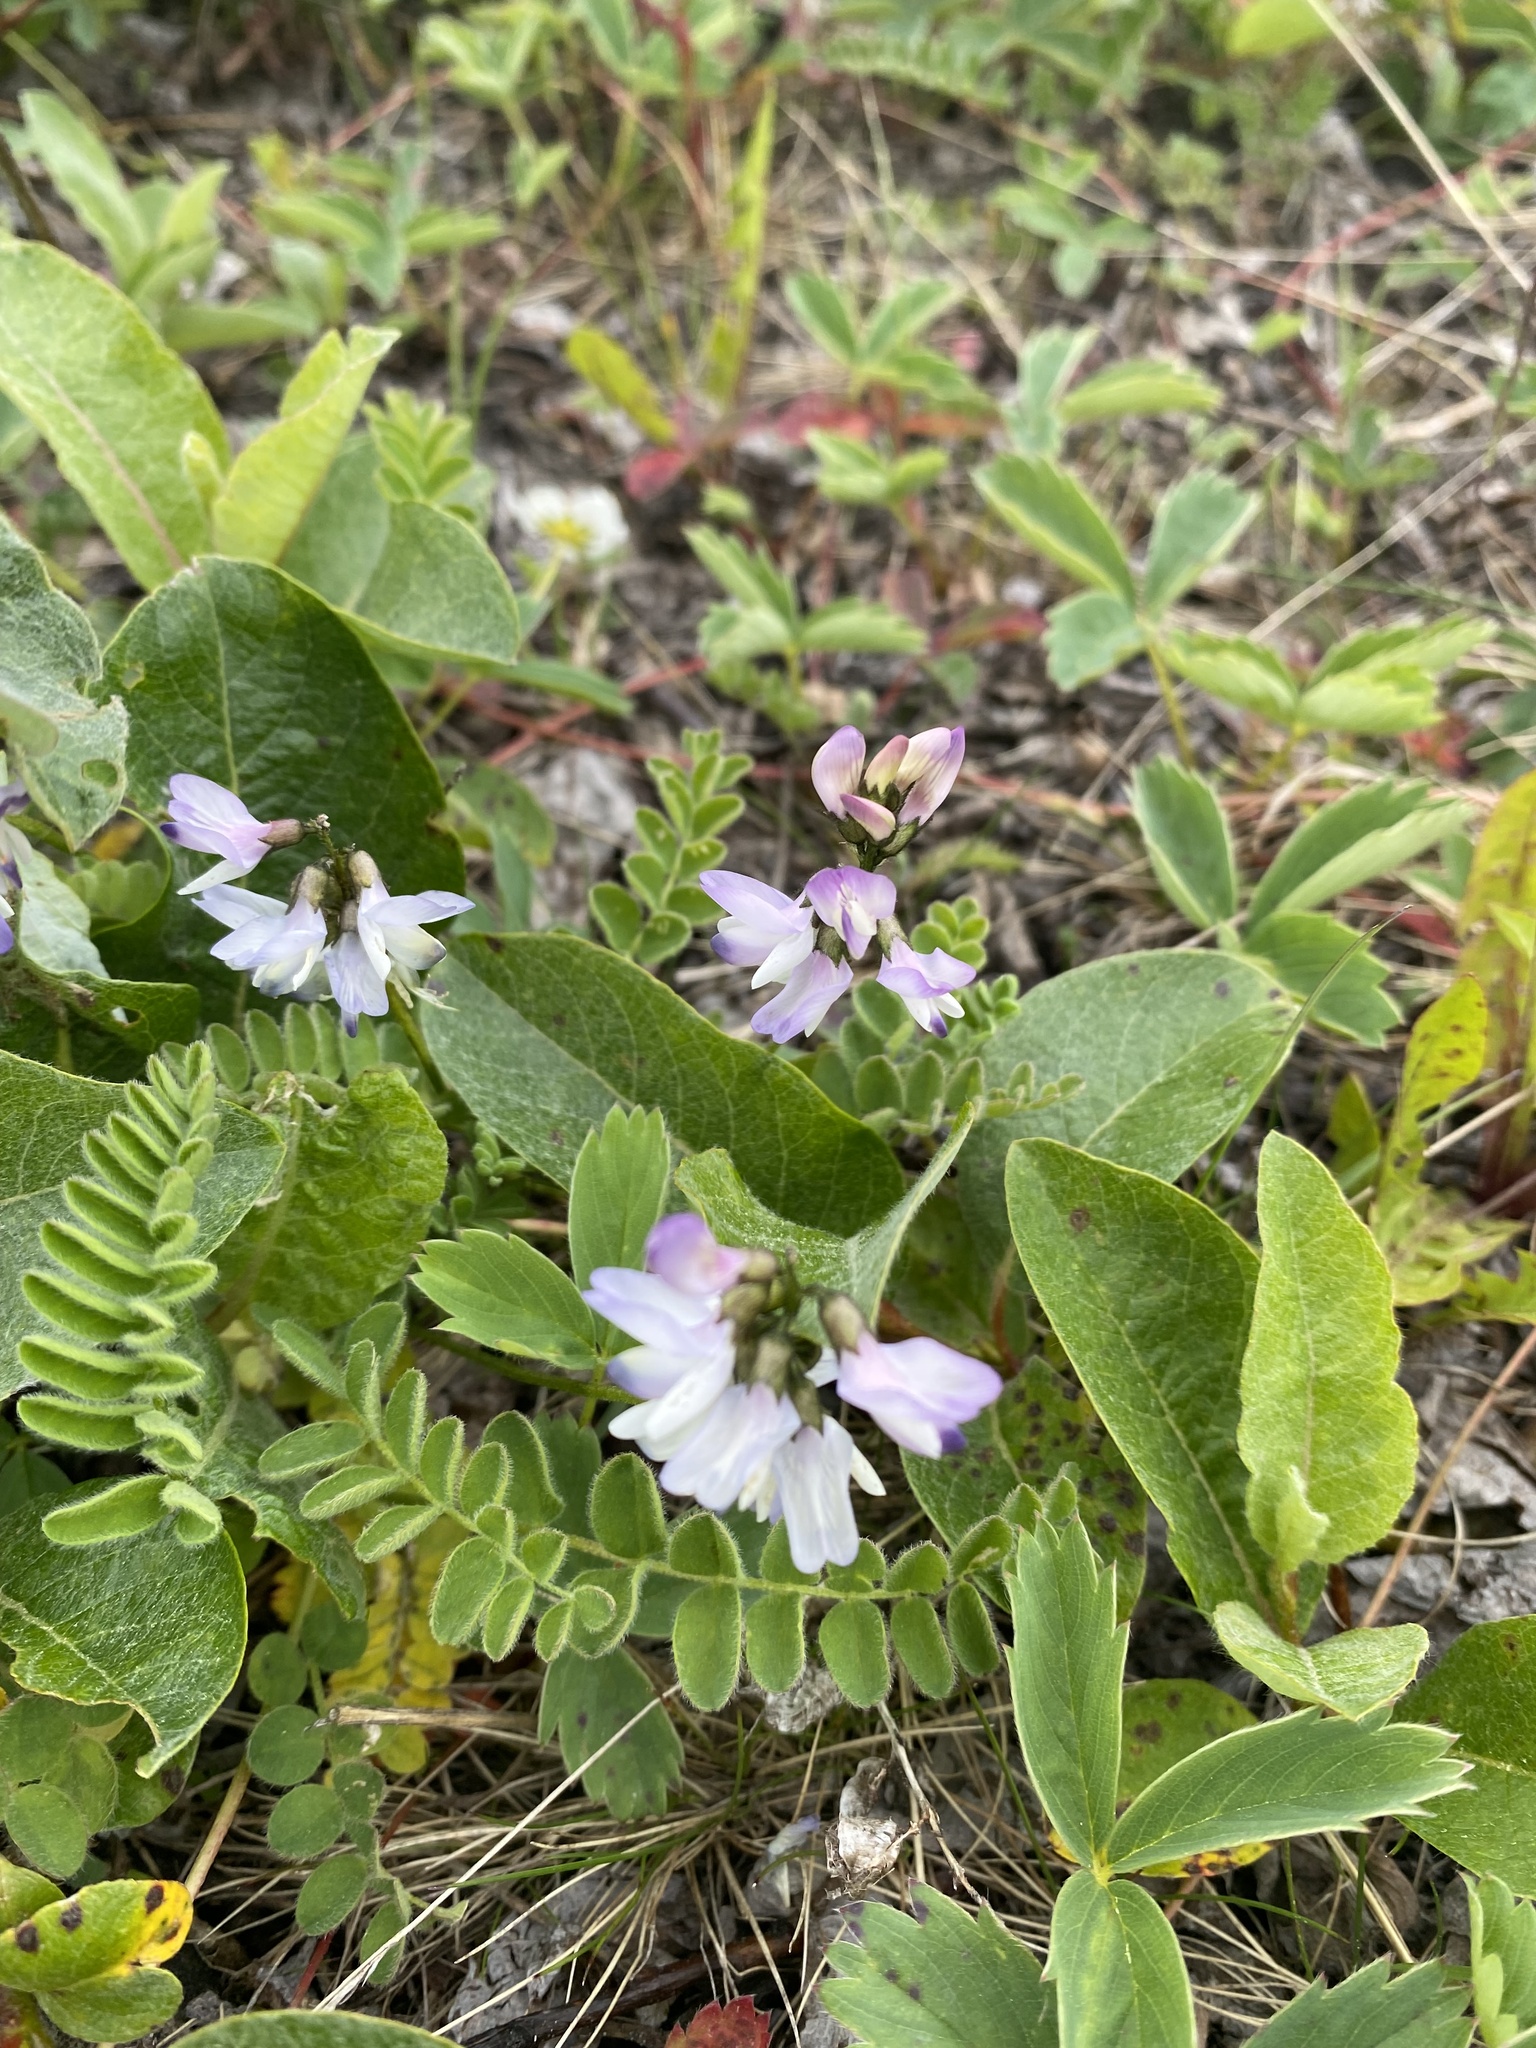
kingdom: Plantae
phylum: Tracheophyta
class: Magnoliopsida
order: Fabales
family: Fabaceae
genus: Astragalus
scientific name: Astragalus alpinus
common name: Alpine milk-vetch
